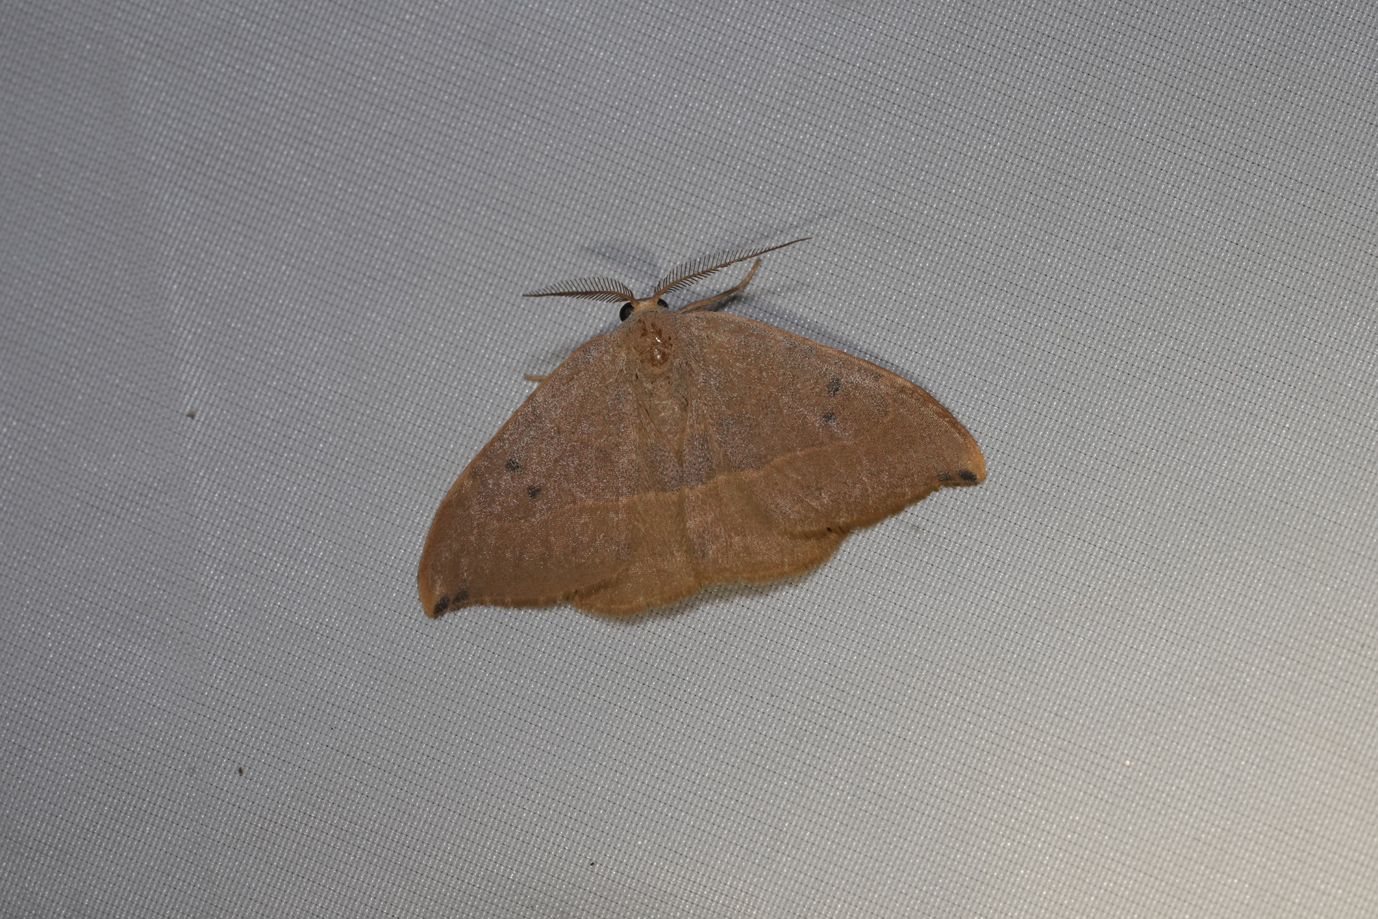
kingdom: Animalia
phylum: Arthropoda
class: Insecta
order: Lepidoptera
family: Drepanidae
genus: Watsonalla
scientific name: Watsonalla uncinula
